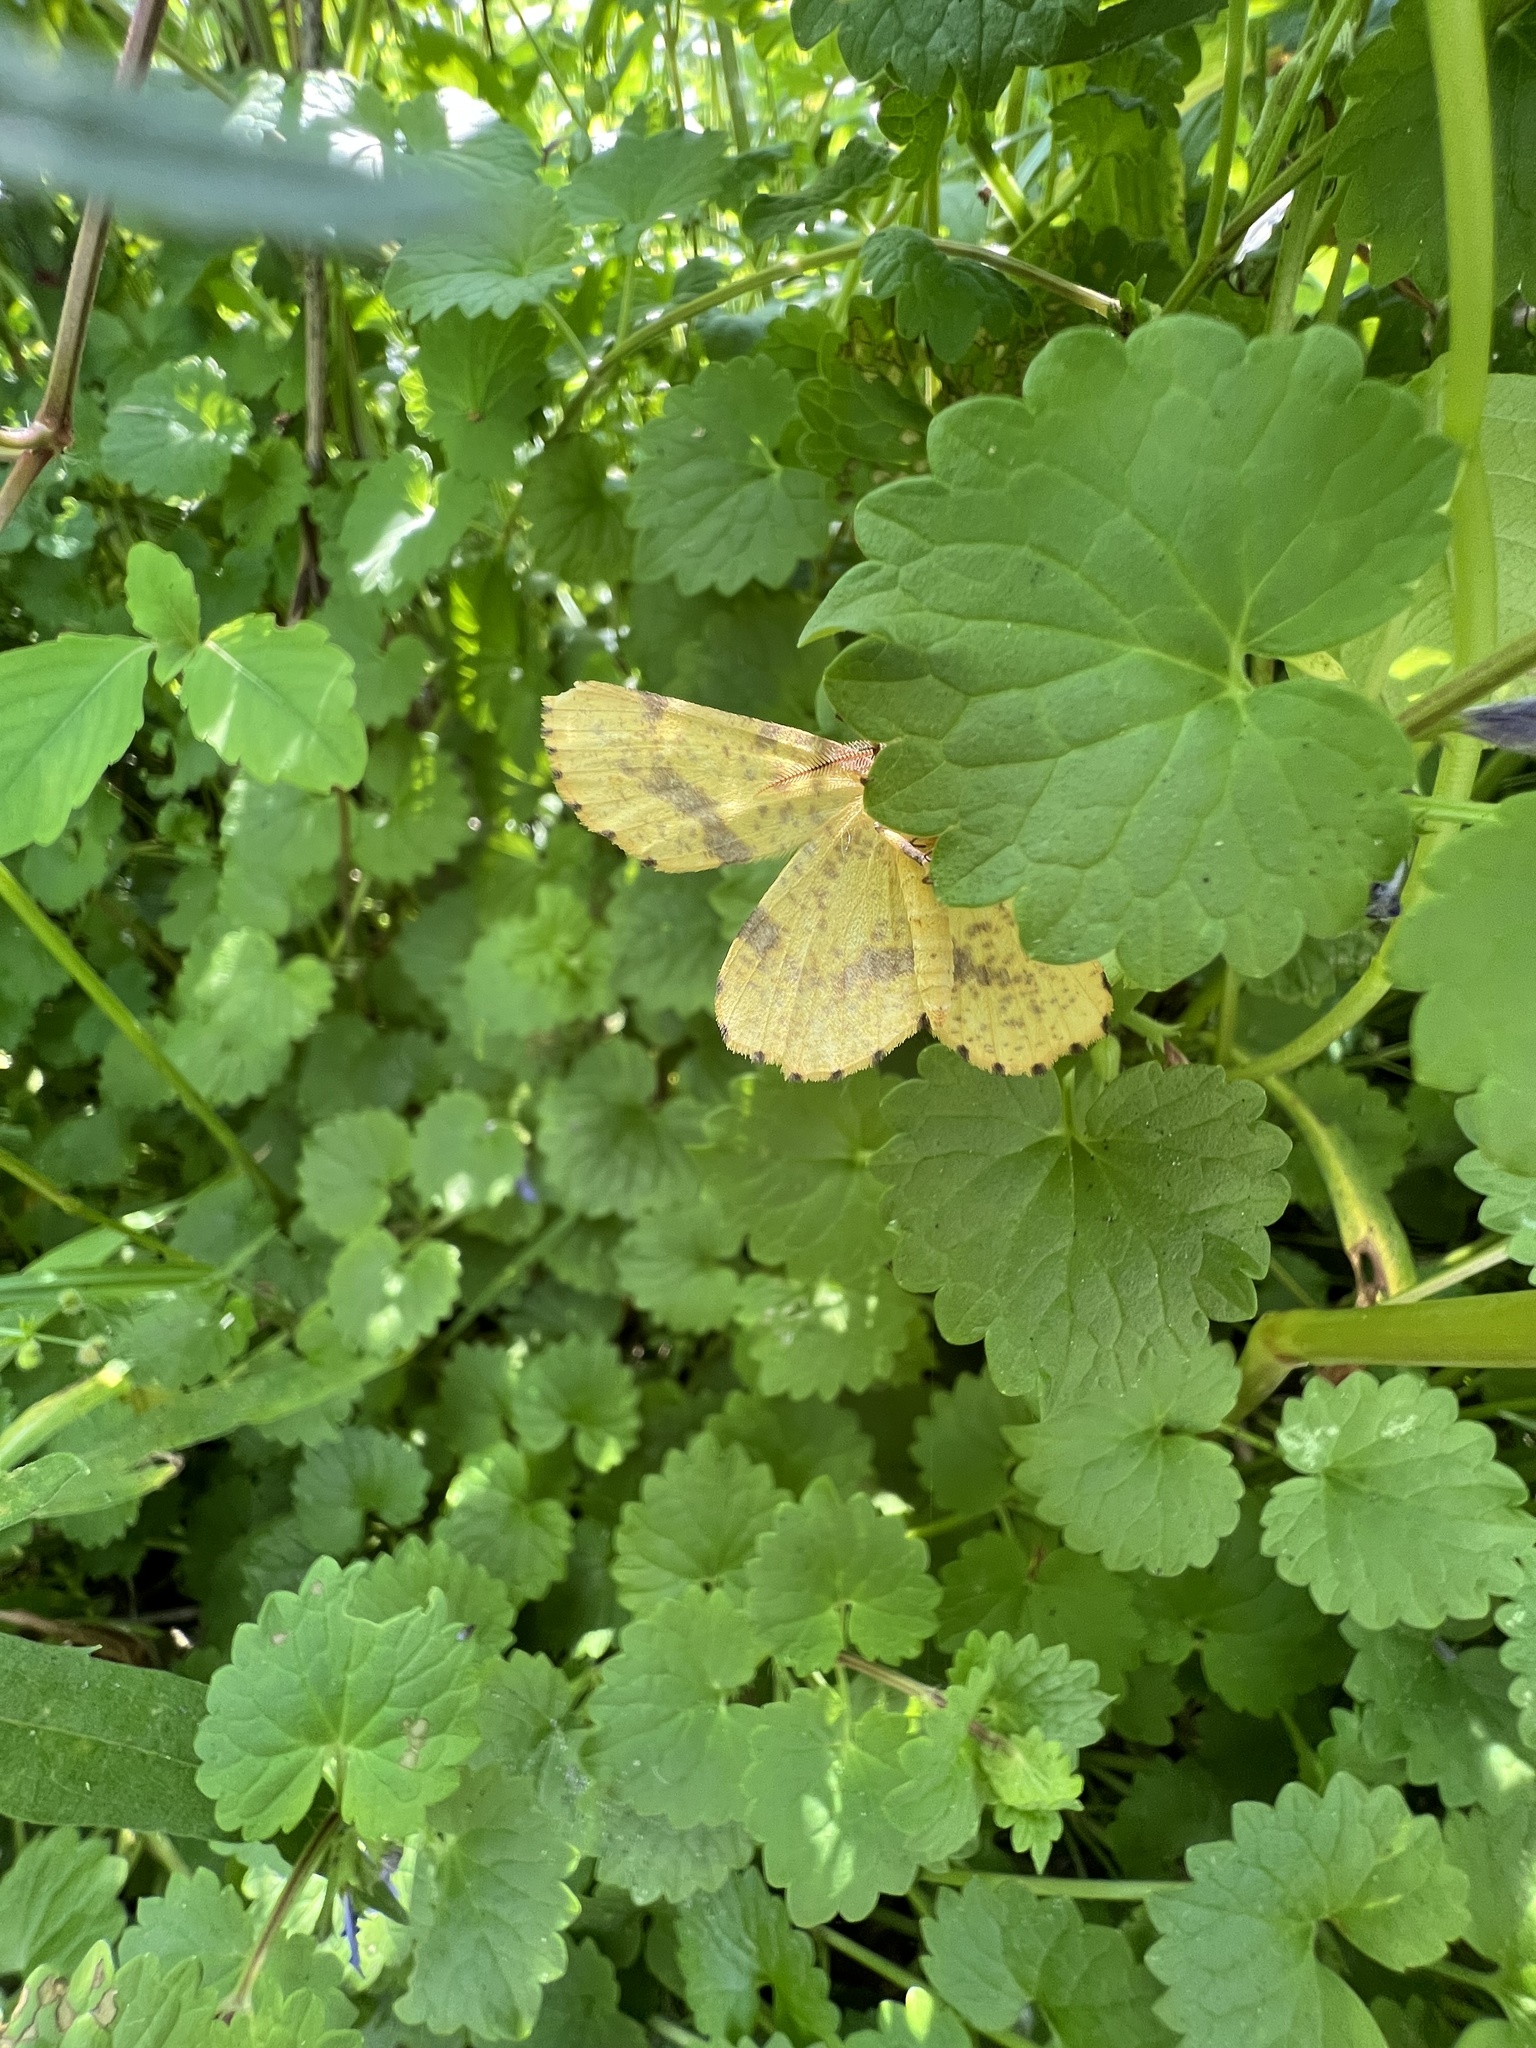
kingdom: Animalia
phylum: Arthropoda
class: Insecta
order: Lepidoptera
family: Geometridae
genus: Xanthotype
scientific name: Xanthotype
